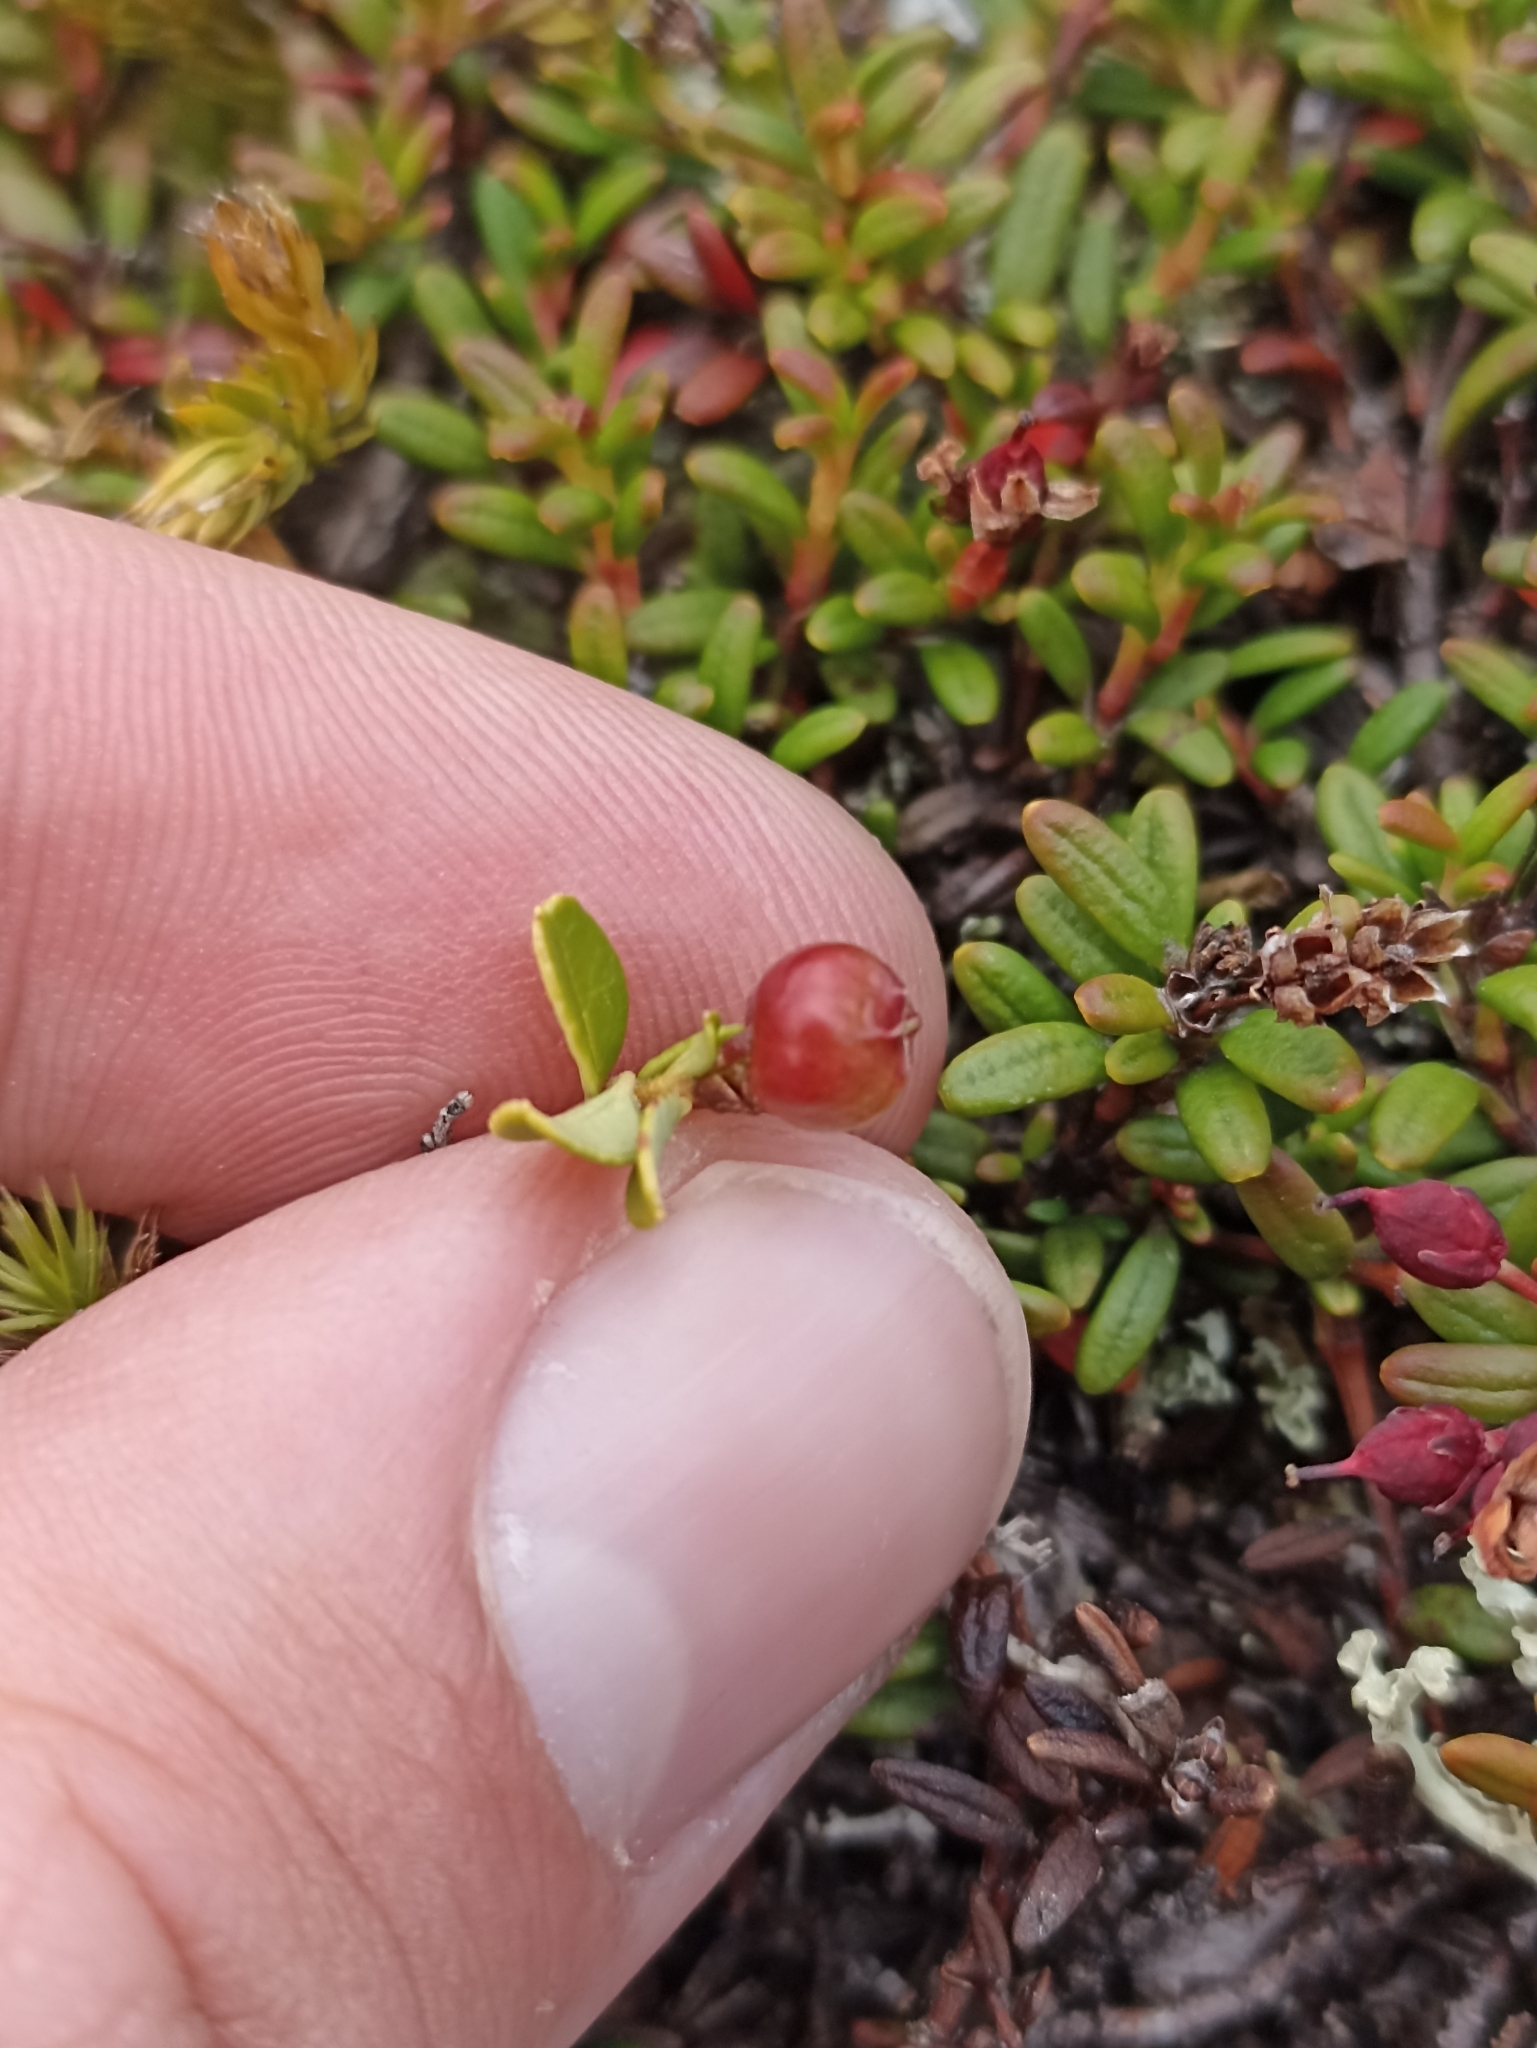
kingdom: Plantae
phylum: Tracheophyta
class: Magnoliopsida
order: Ericales
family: Ericaceae
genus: Kalmia
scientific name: Kalmia procumbens
